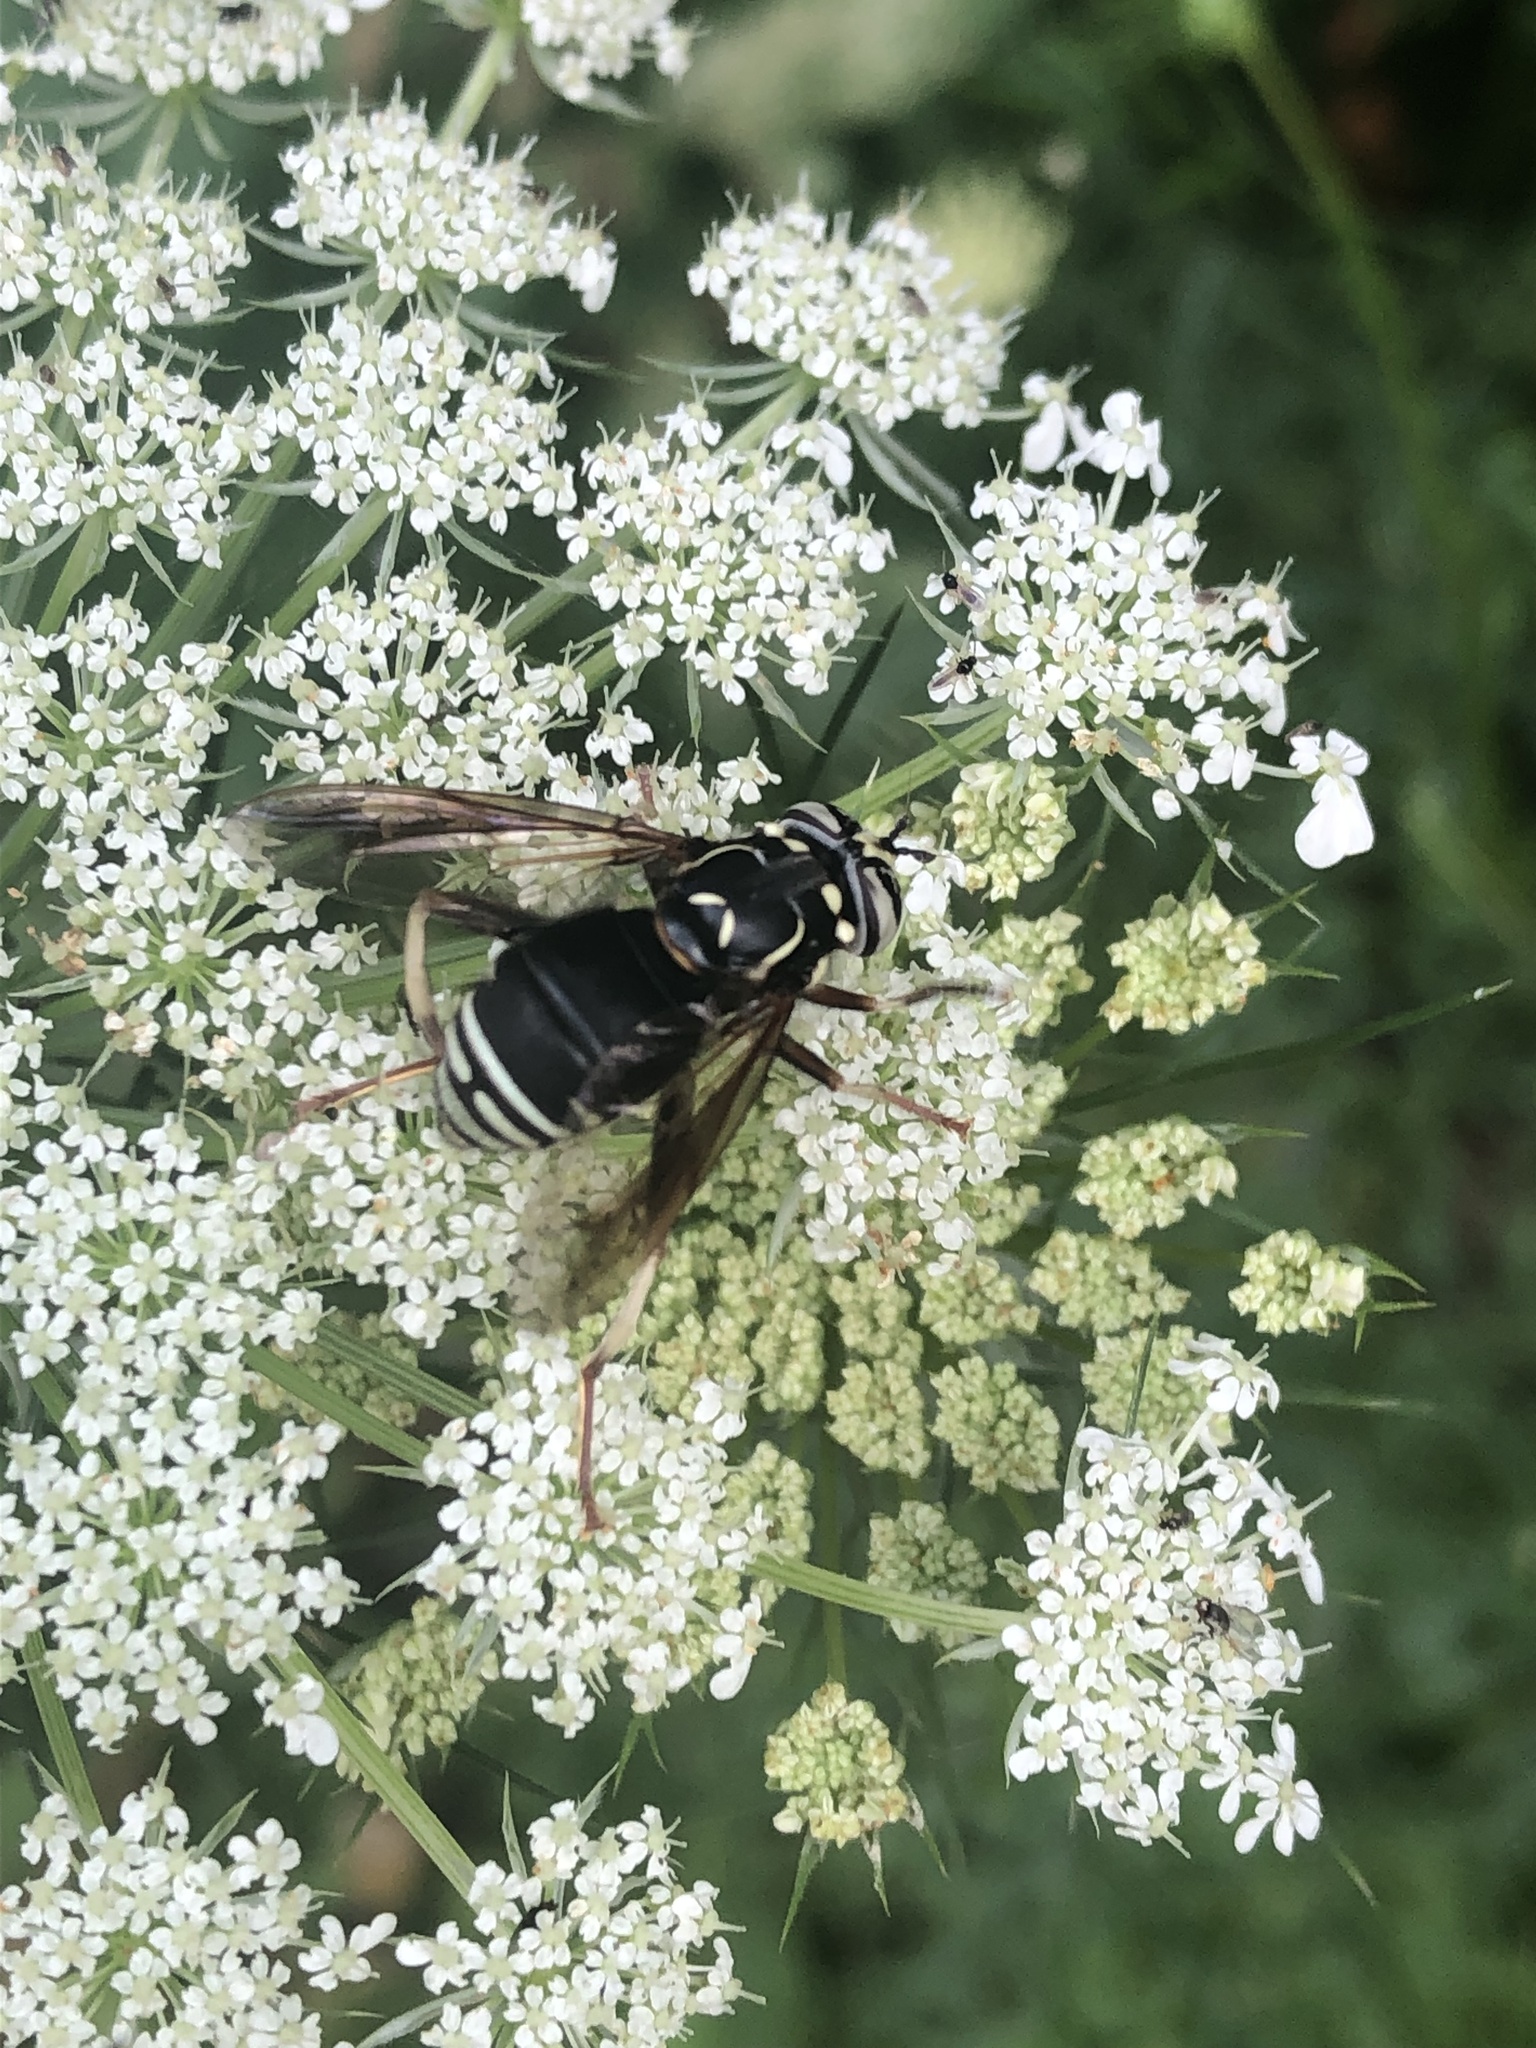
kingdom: Animalia
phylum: Arthropoda
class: Insecta
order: Diptera
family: Syrphidae
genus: Spilomyia
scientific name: Spilomyia fusca
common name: Bald-faced hornet fly
